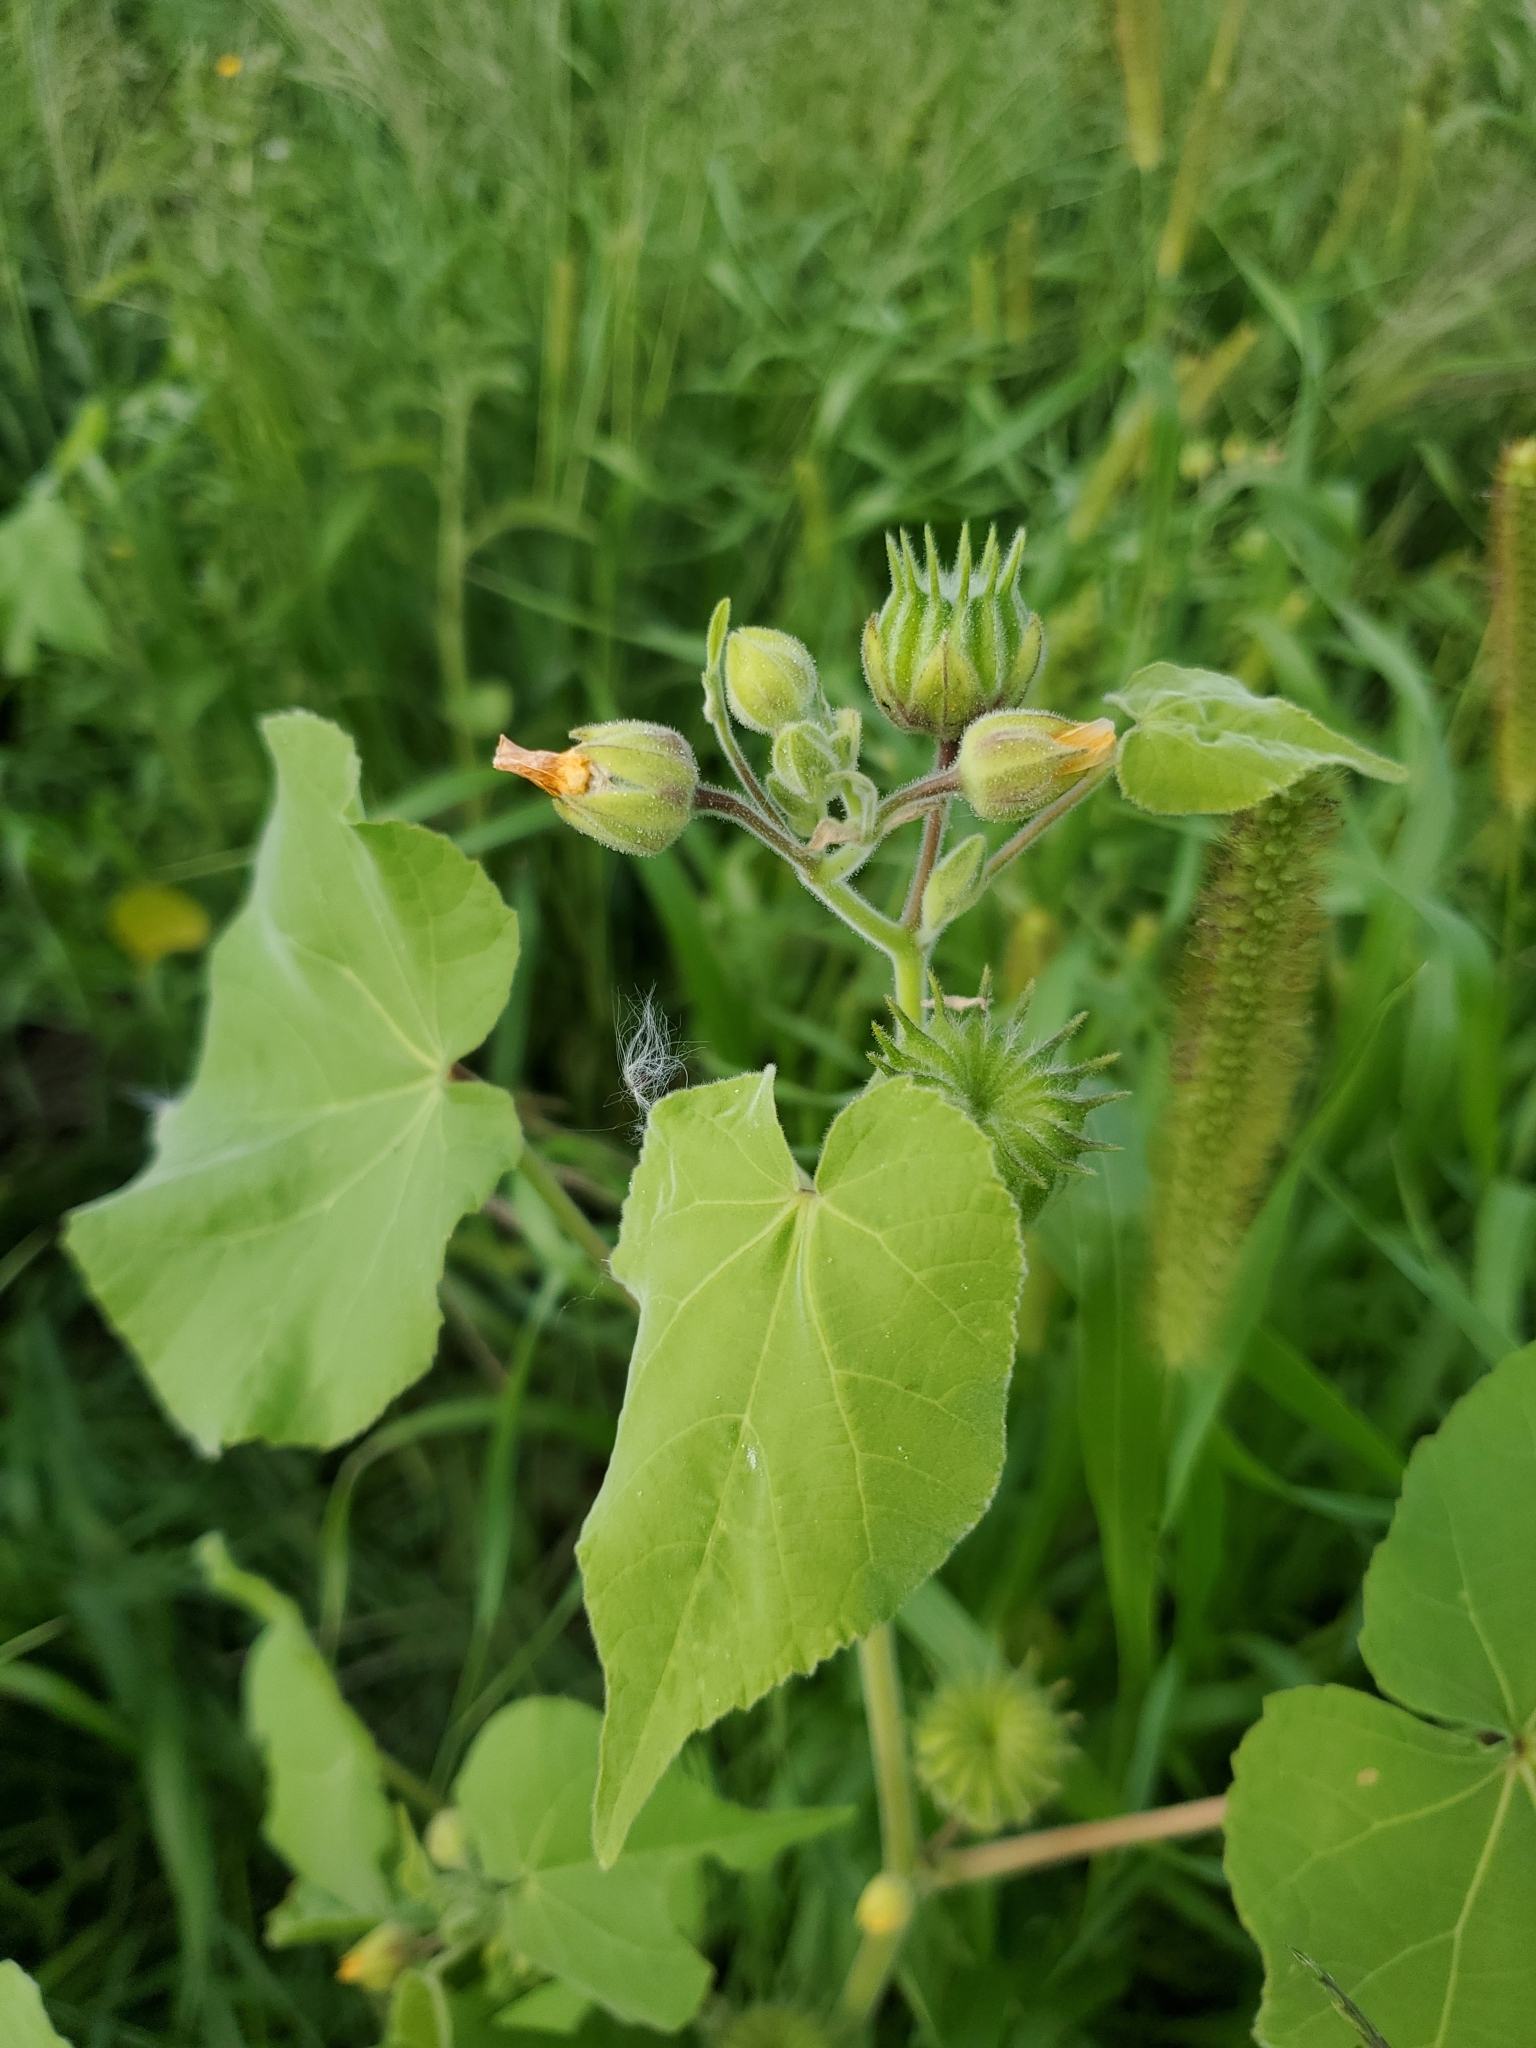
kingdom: Plantae
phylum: Tracheophyta
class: Magnoliopsida
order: Malvales
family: Malvaceae
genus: Abutilon
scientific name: Abutilon theophrasti
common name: Velvetleaf
